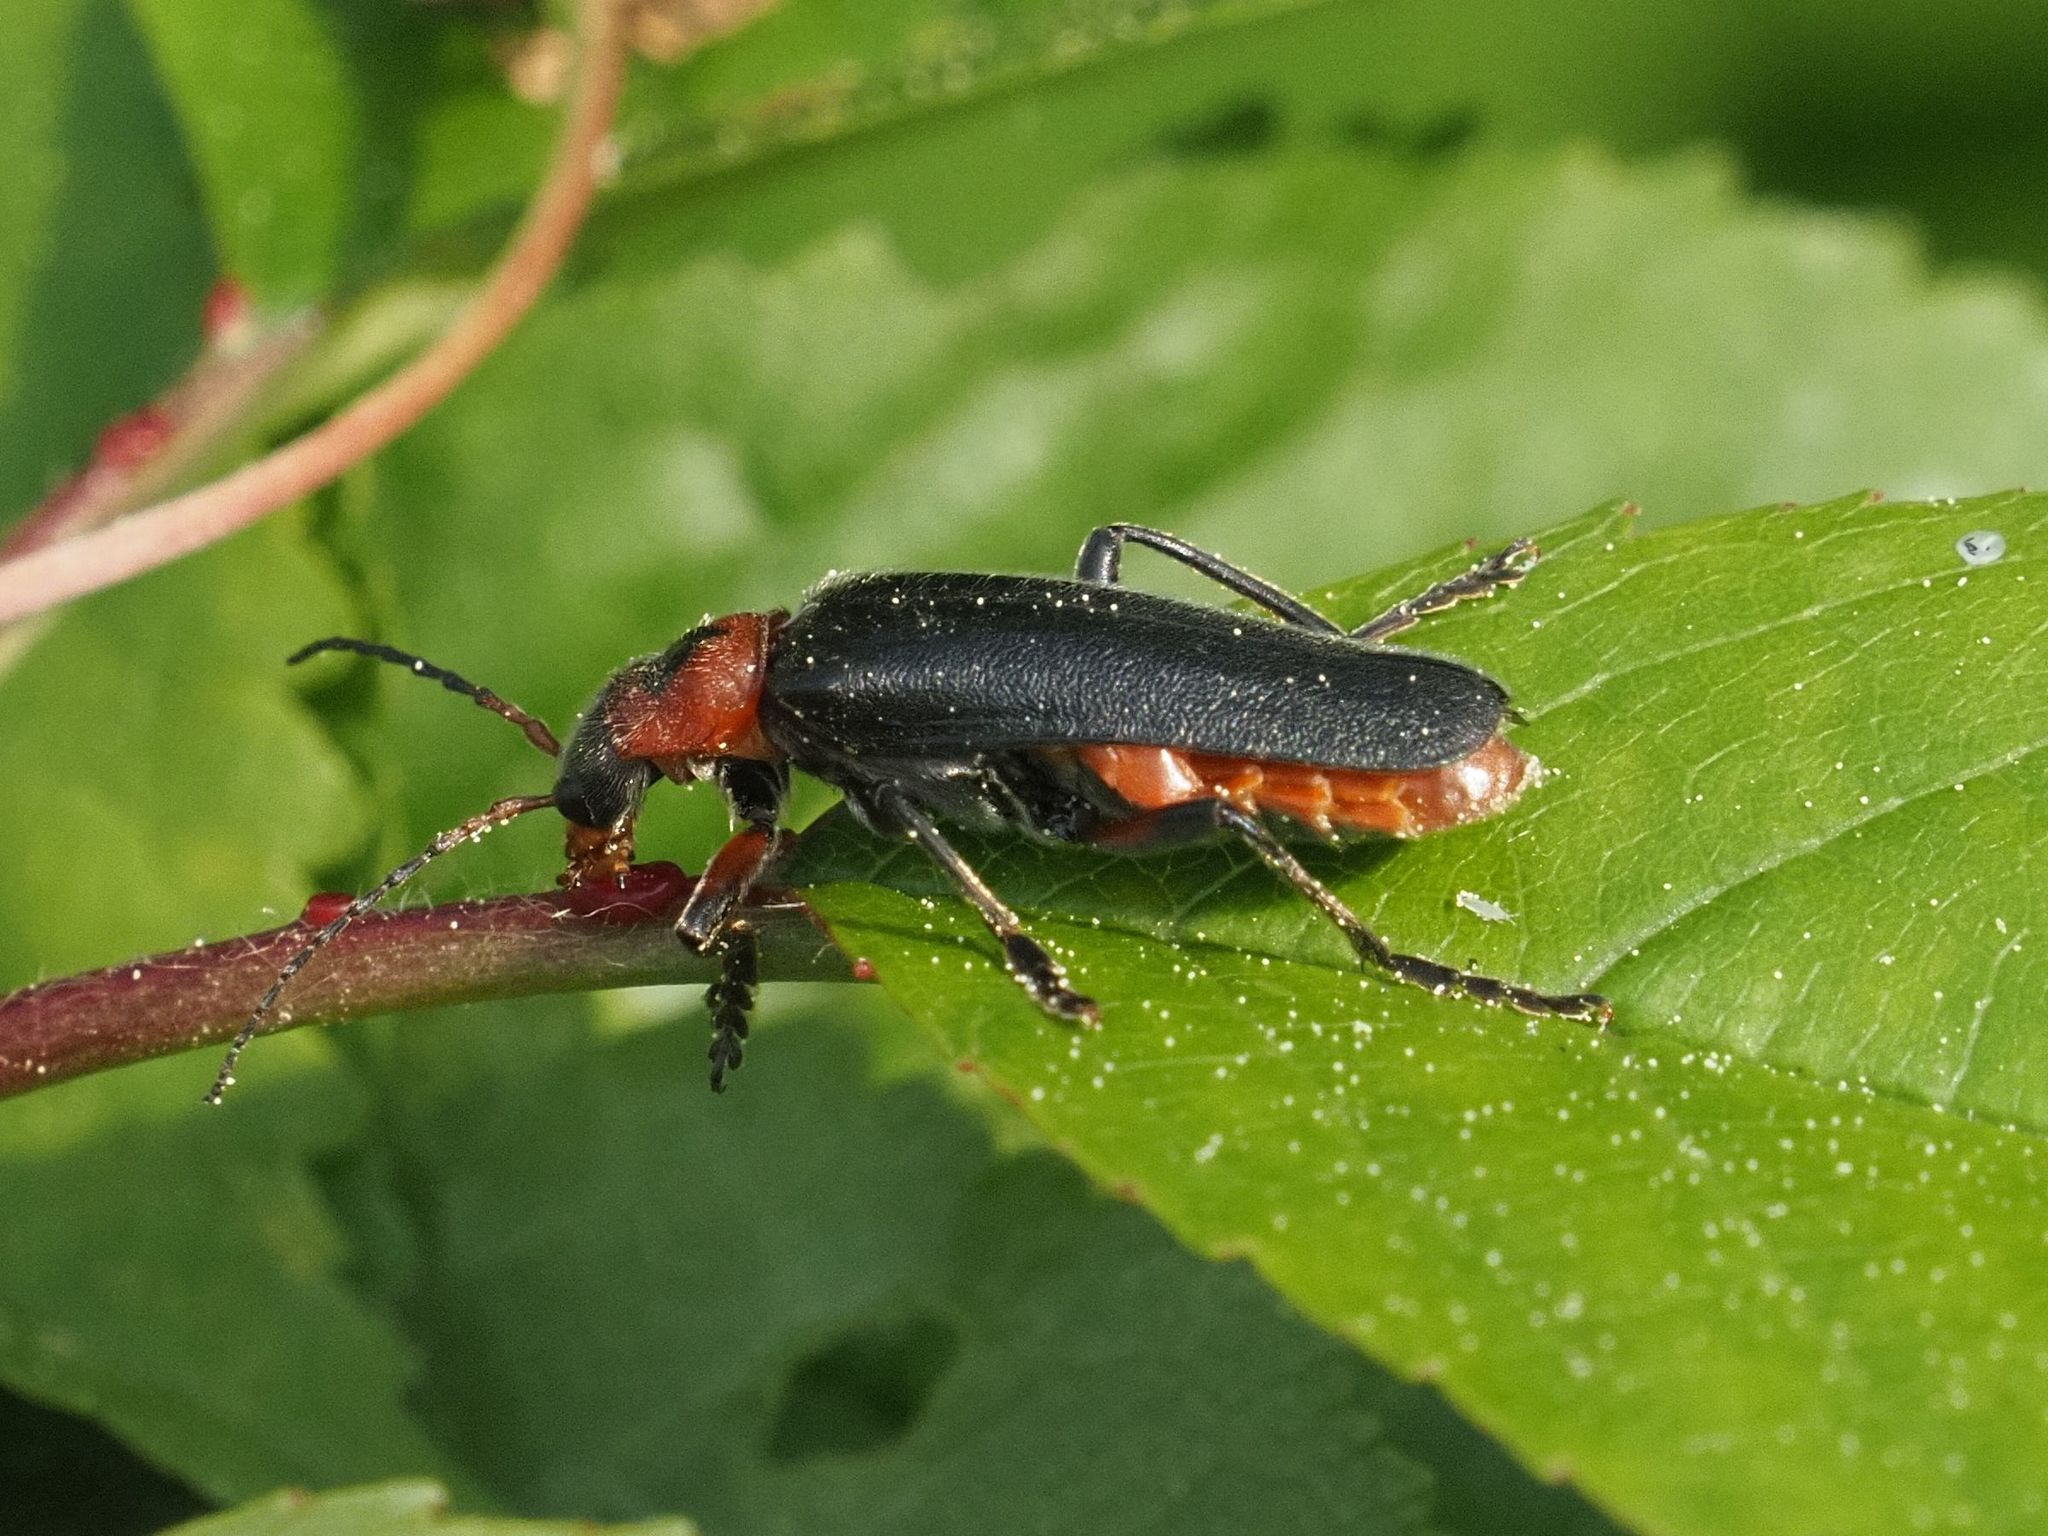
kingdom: Animalia
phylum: Arthropoda
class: Insecta
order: Coleoptera
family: Cantharidae
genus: Cantharis
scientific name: Cantharis rustica
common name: Soldier beetle
